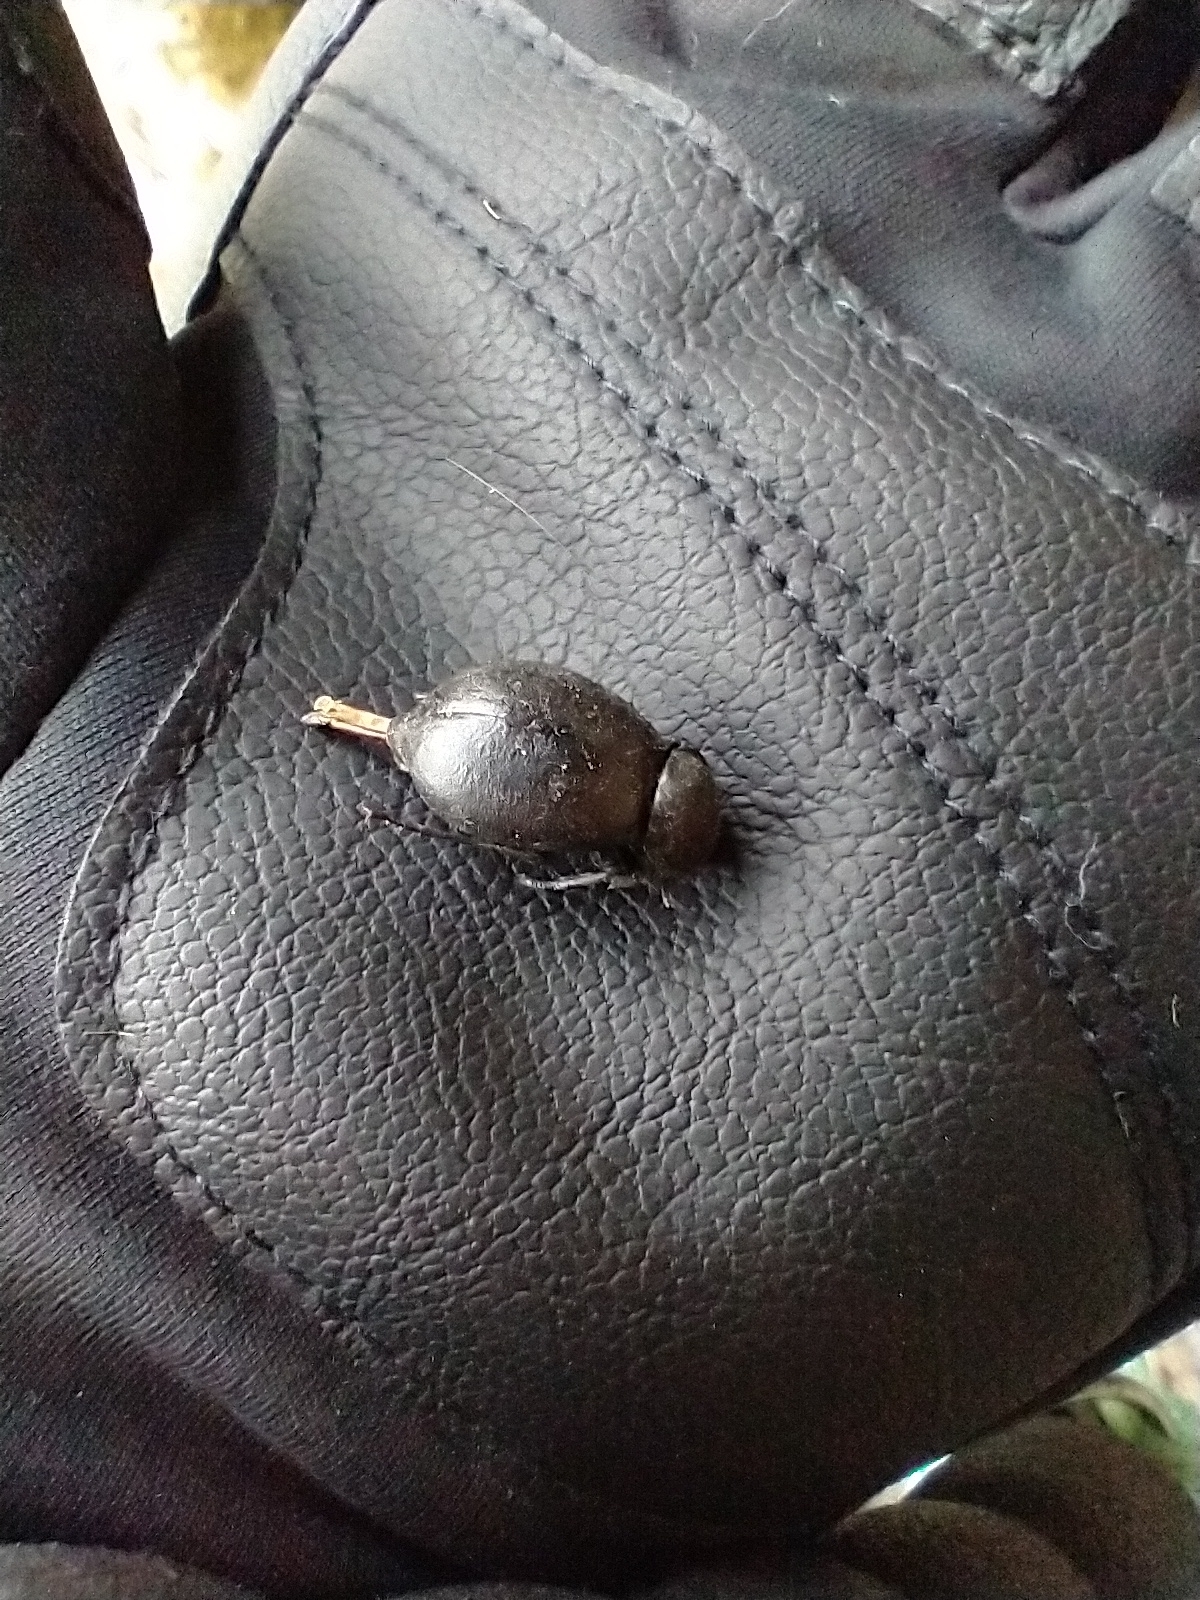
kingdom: Animalia
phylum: Arthropoda
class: Insecta
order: Coleoptera
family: Tenebrionidae
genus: Stenomorpha
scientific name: Stenomorpha puncticollis
